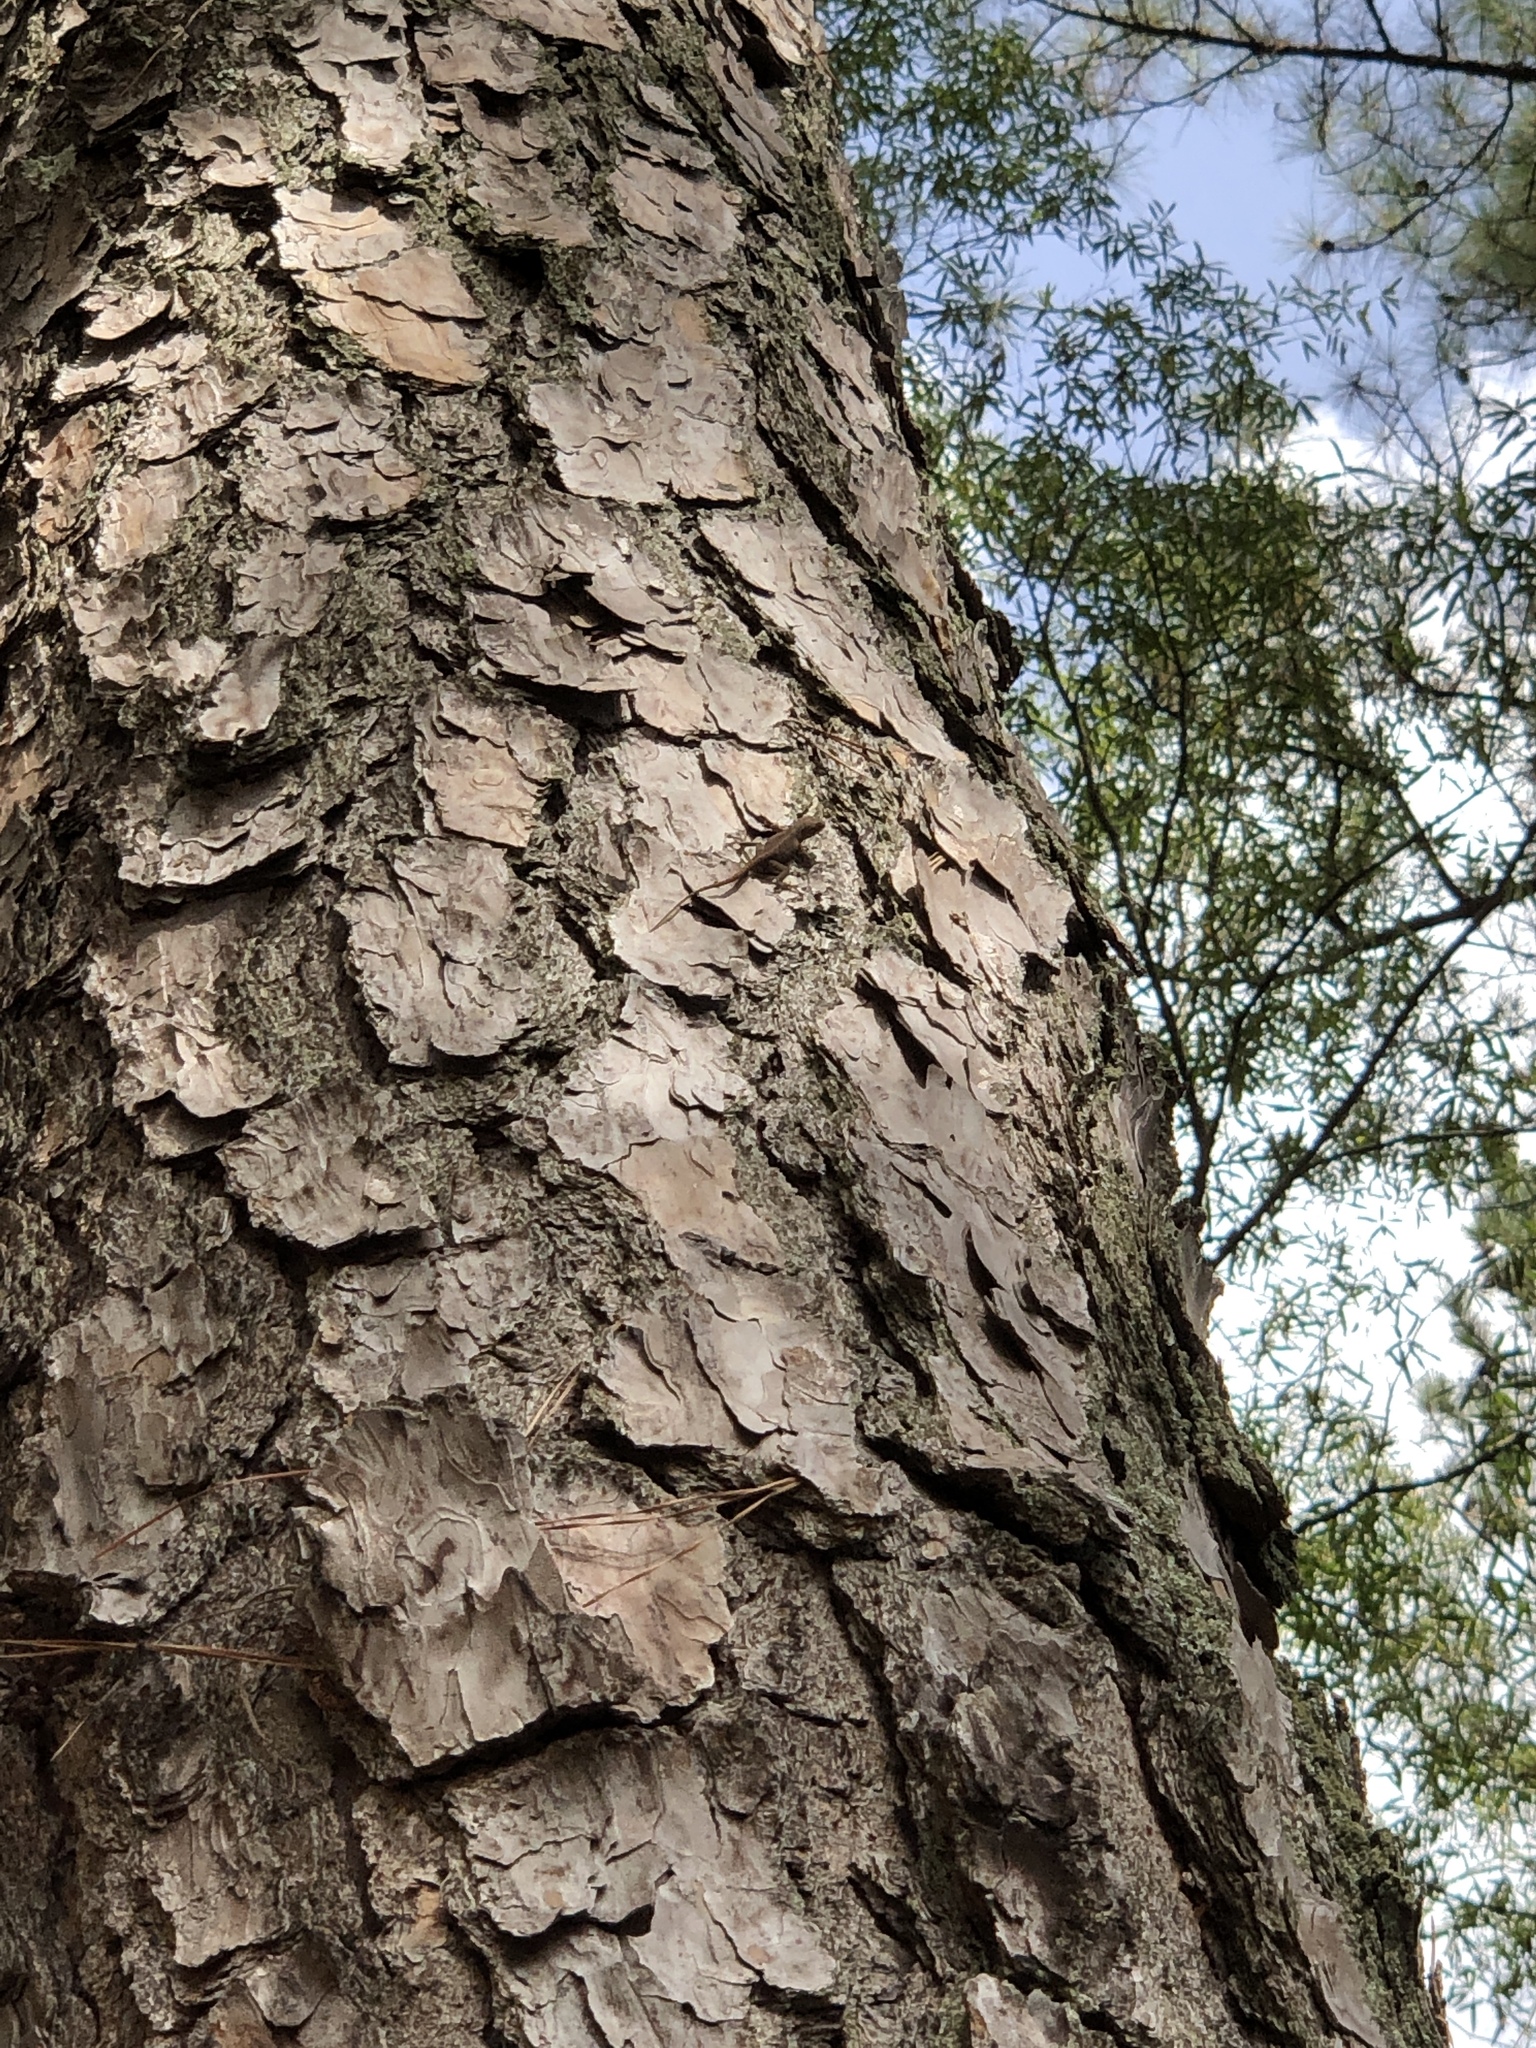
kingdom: Animalia
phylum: Chordata
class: Squamata
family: Dactyloidae
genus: Anolis
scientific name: Anolis carolinensis
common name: Green anole
